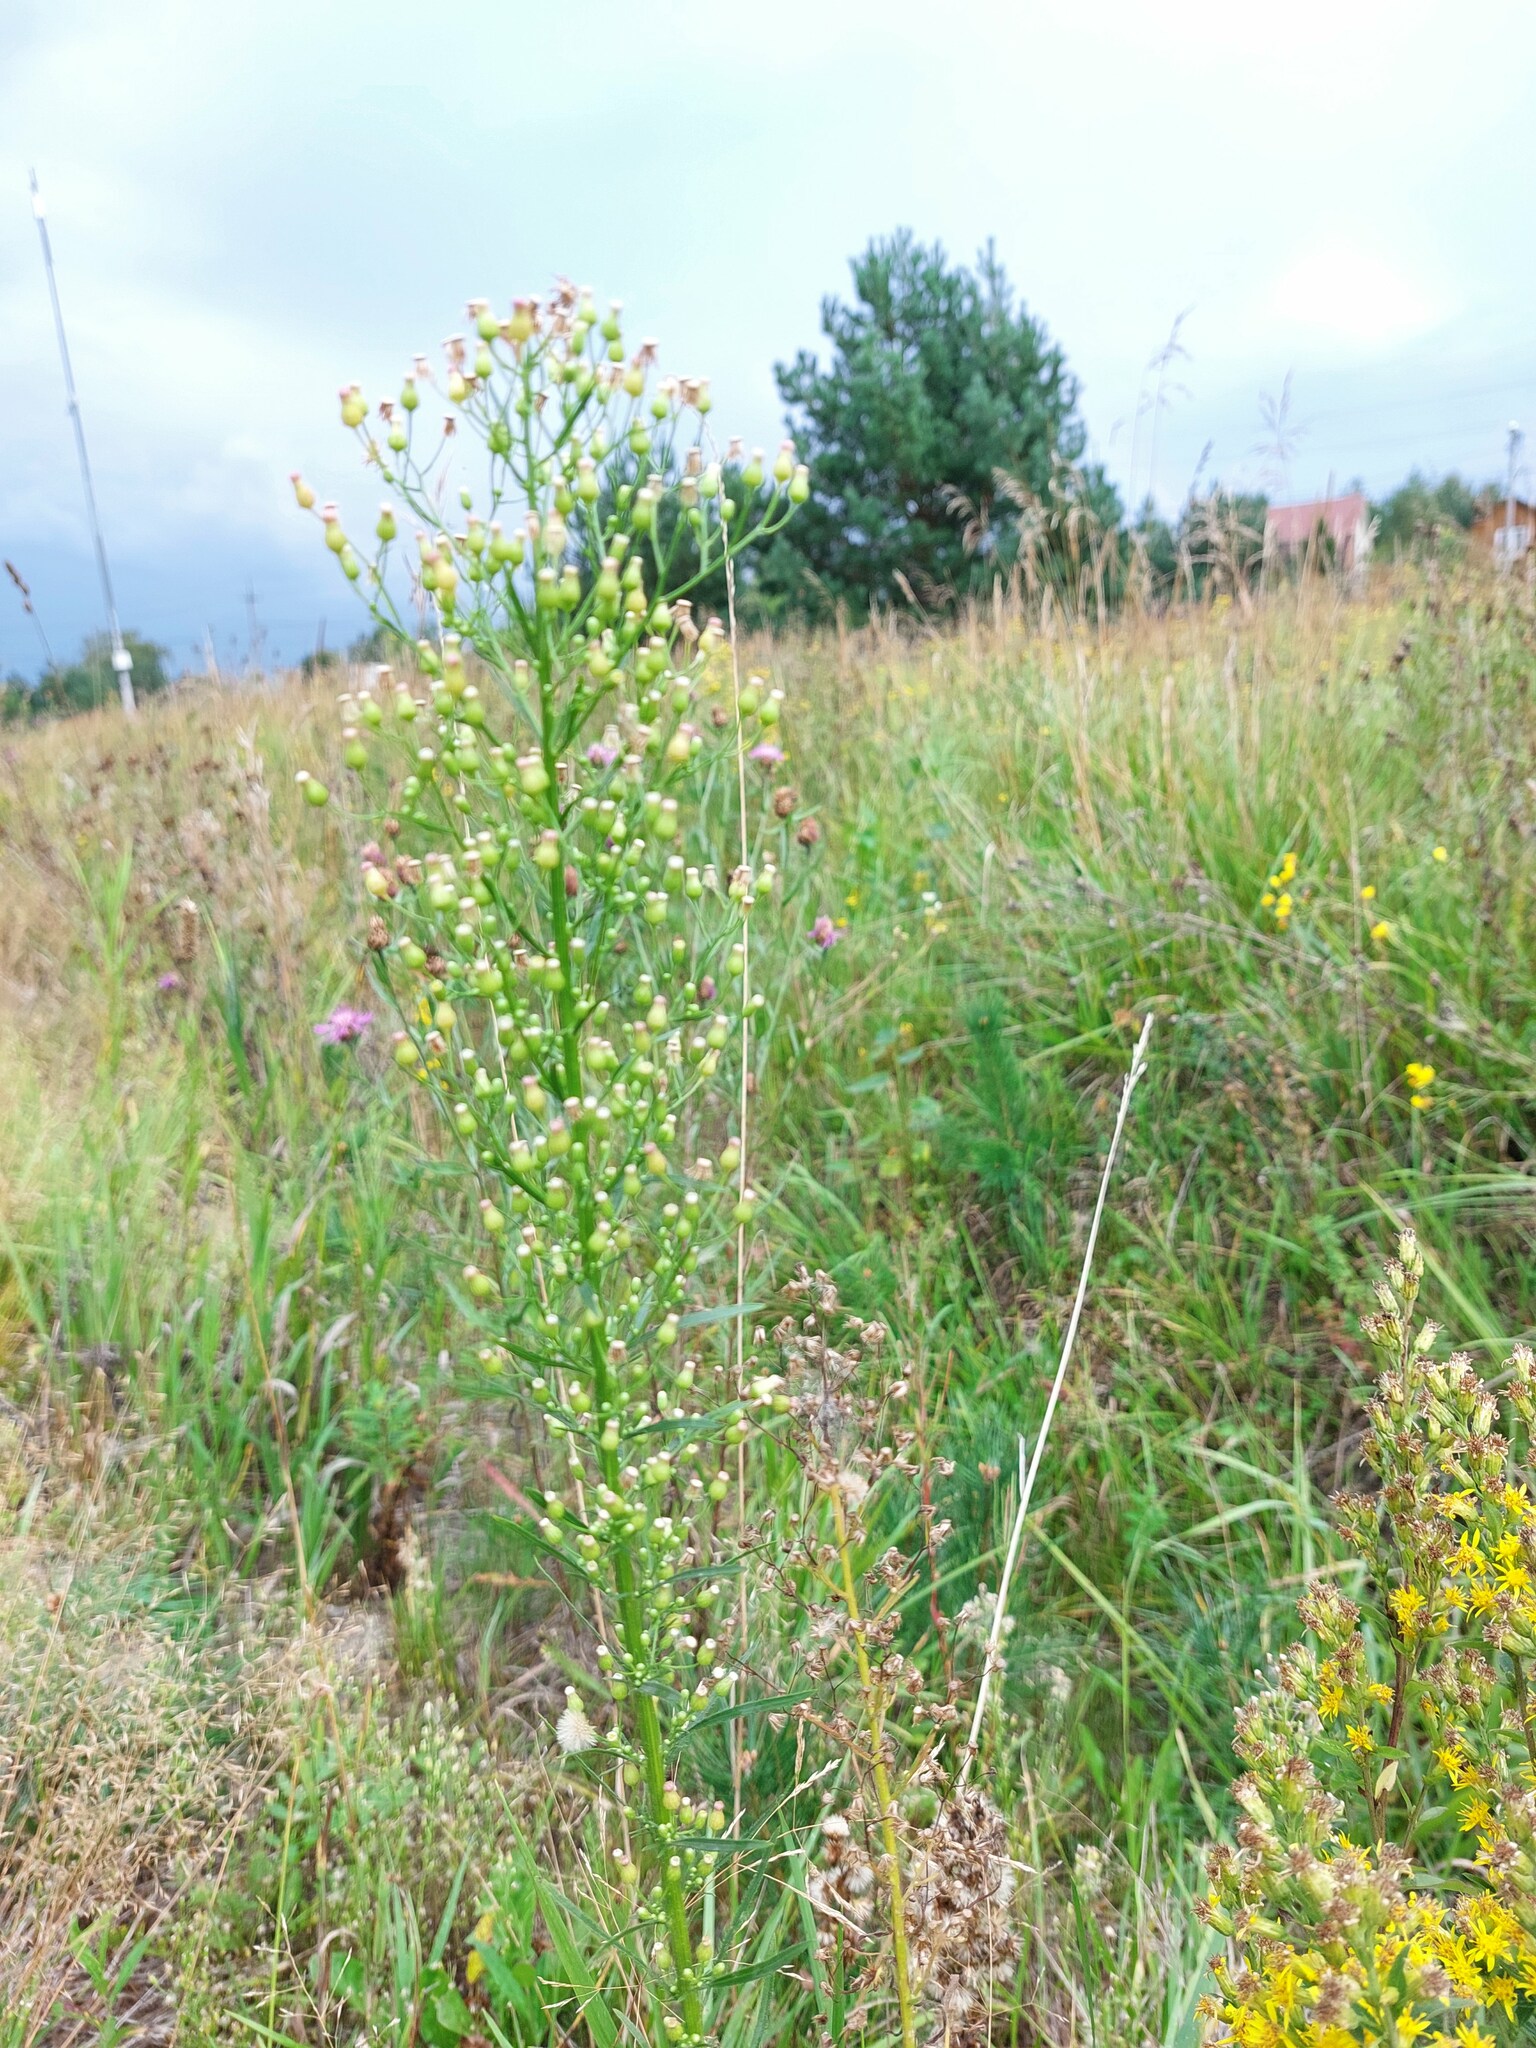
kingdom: Plantae
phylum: Tracheophyta
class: Magnoliopsida
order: Asterales
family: Asteraceae
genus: Erigeron
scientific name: Erigeron canadensis
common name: Canadian fleabane
